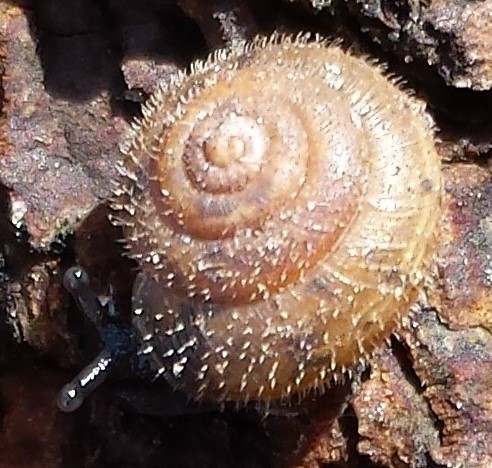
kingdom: Animalia
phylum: Mollusca
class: Gastropoda
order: Stylommatophora
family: Hygromiidae
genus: Trochulus
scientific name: Trochulus hispidus
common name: Hairy snail
